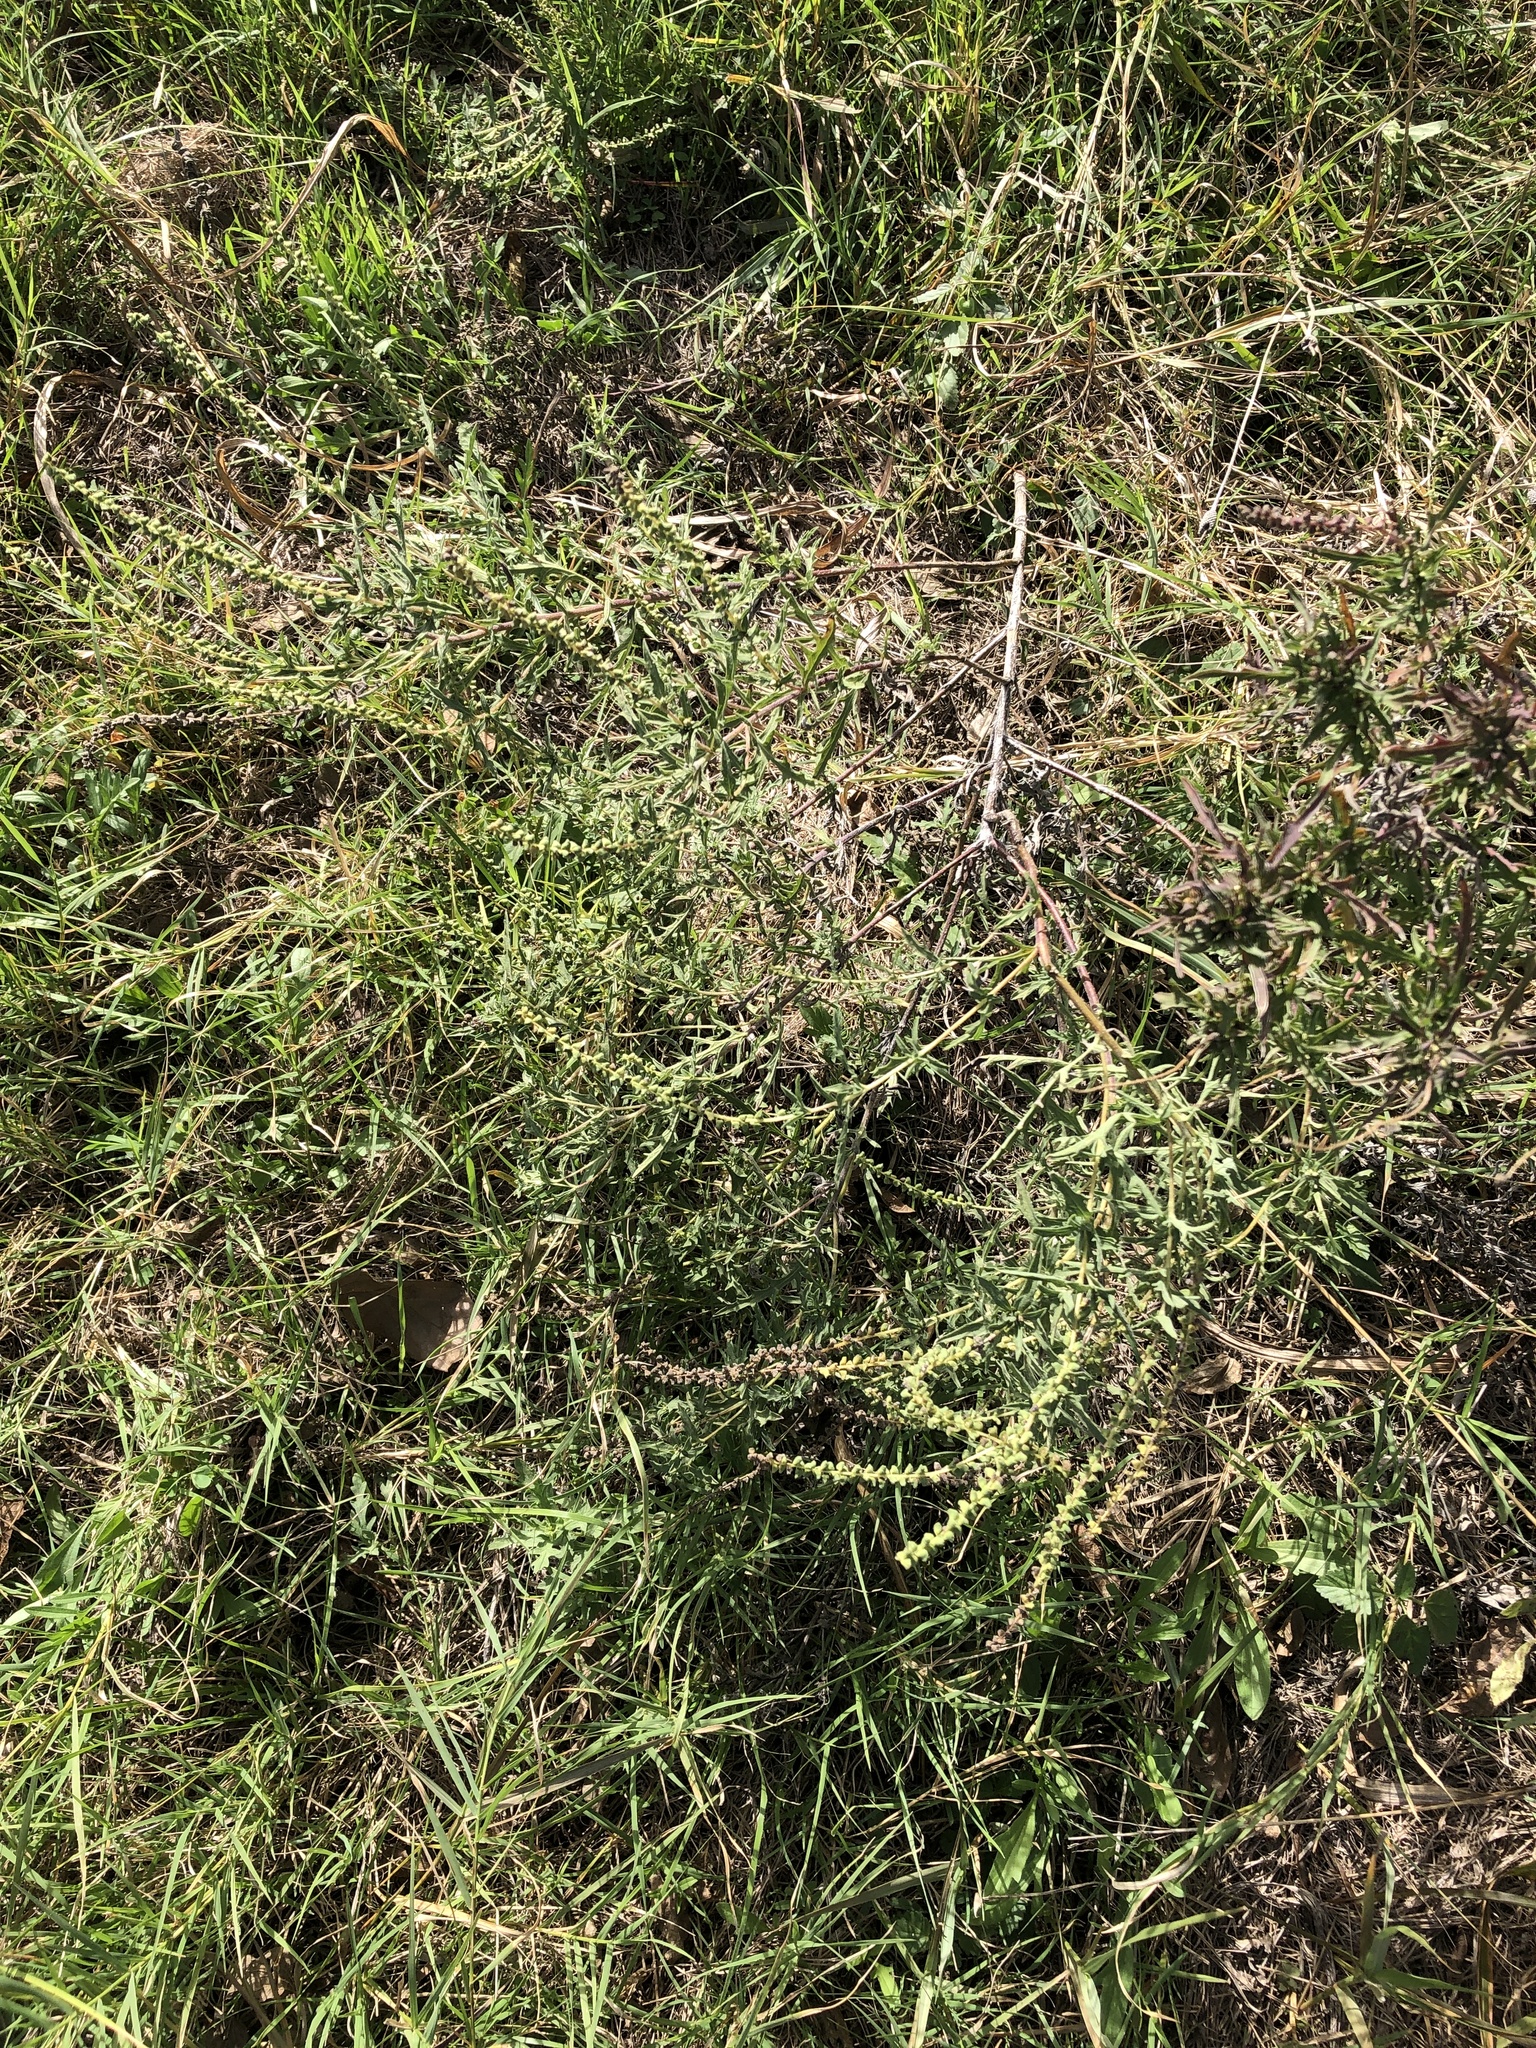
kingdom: Plantae
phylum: Tracheophyta
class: Magnoliopsida
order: Asterales
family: Asteraceae
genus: Ambrosia
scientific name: Ambrosia psilostachya
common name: Perennial ragweed
